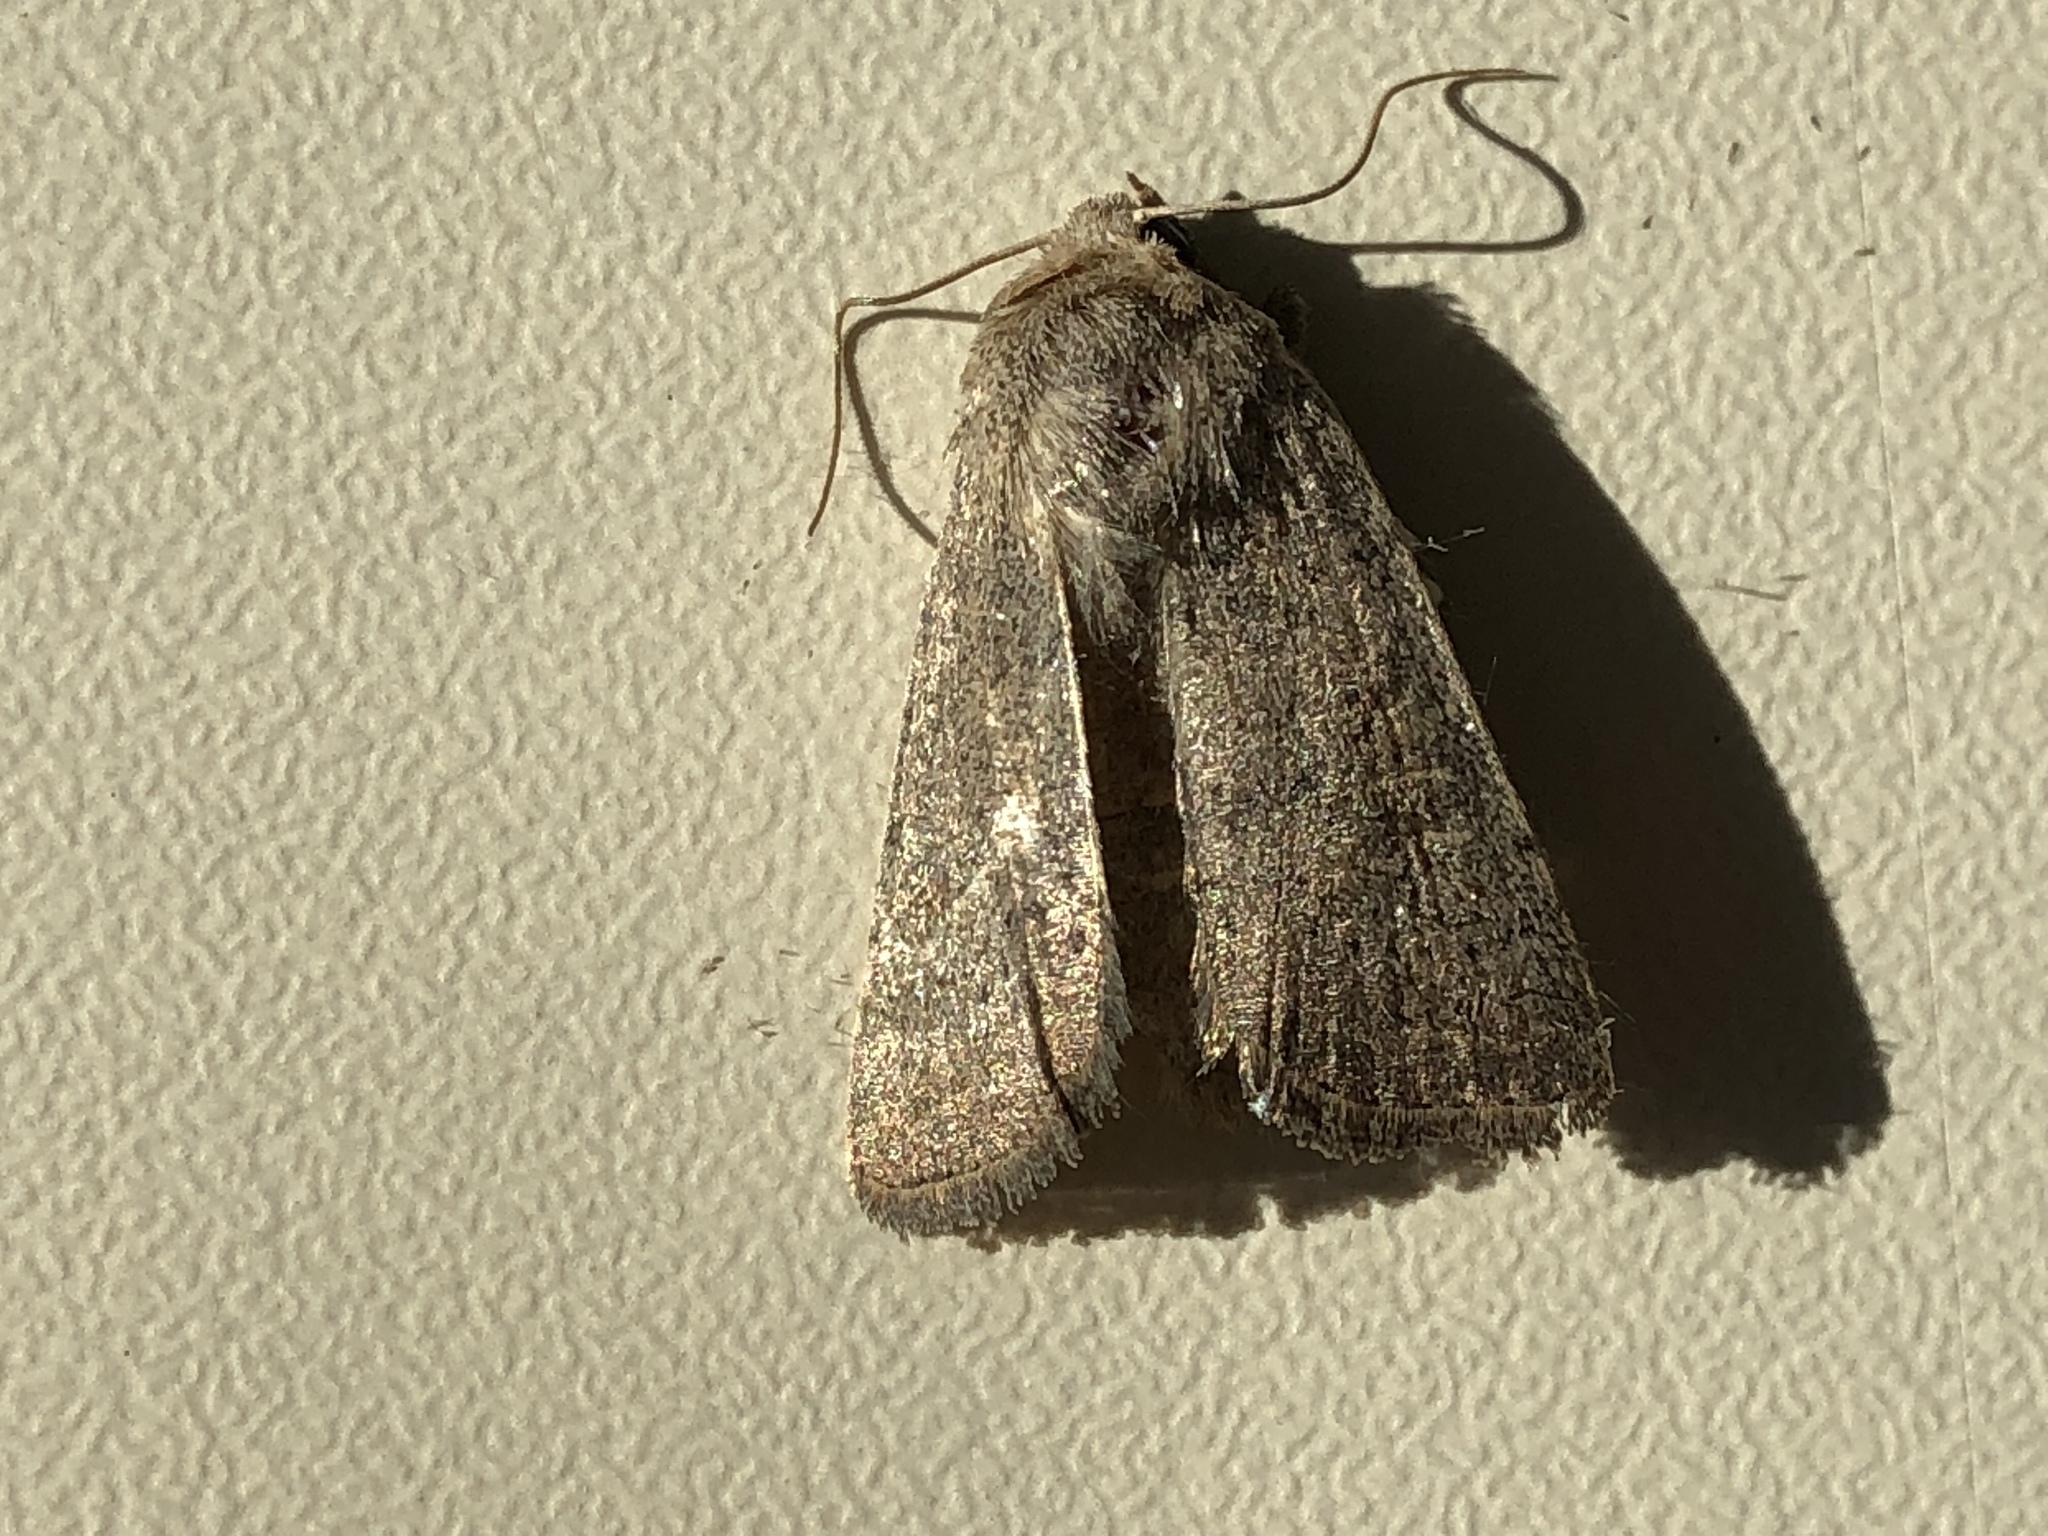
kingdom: Animalia
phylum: Arthropoda
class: Insecta
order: Lepidoptera
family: Noctuidae
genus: Hoplodrina
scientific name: Hoplodrina ambigua
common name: Vine's rustic
